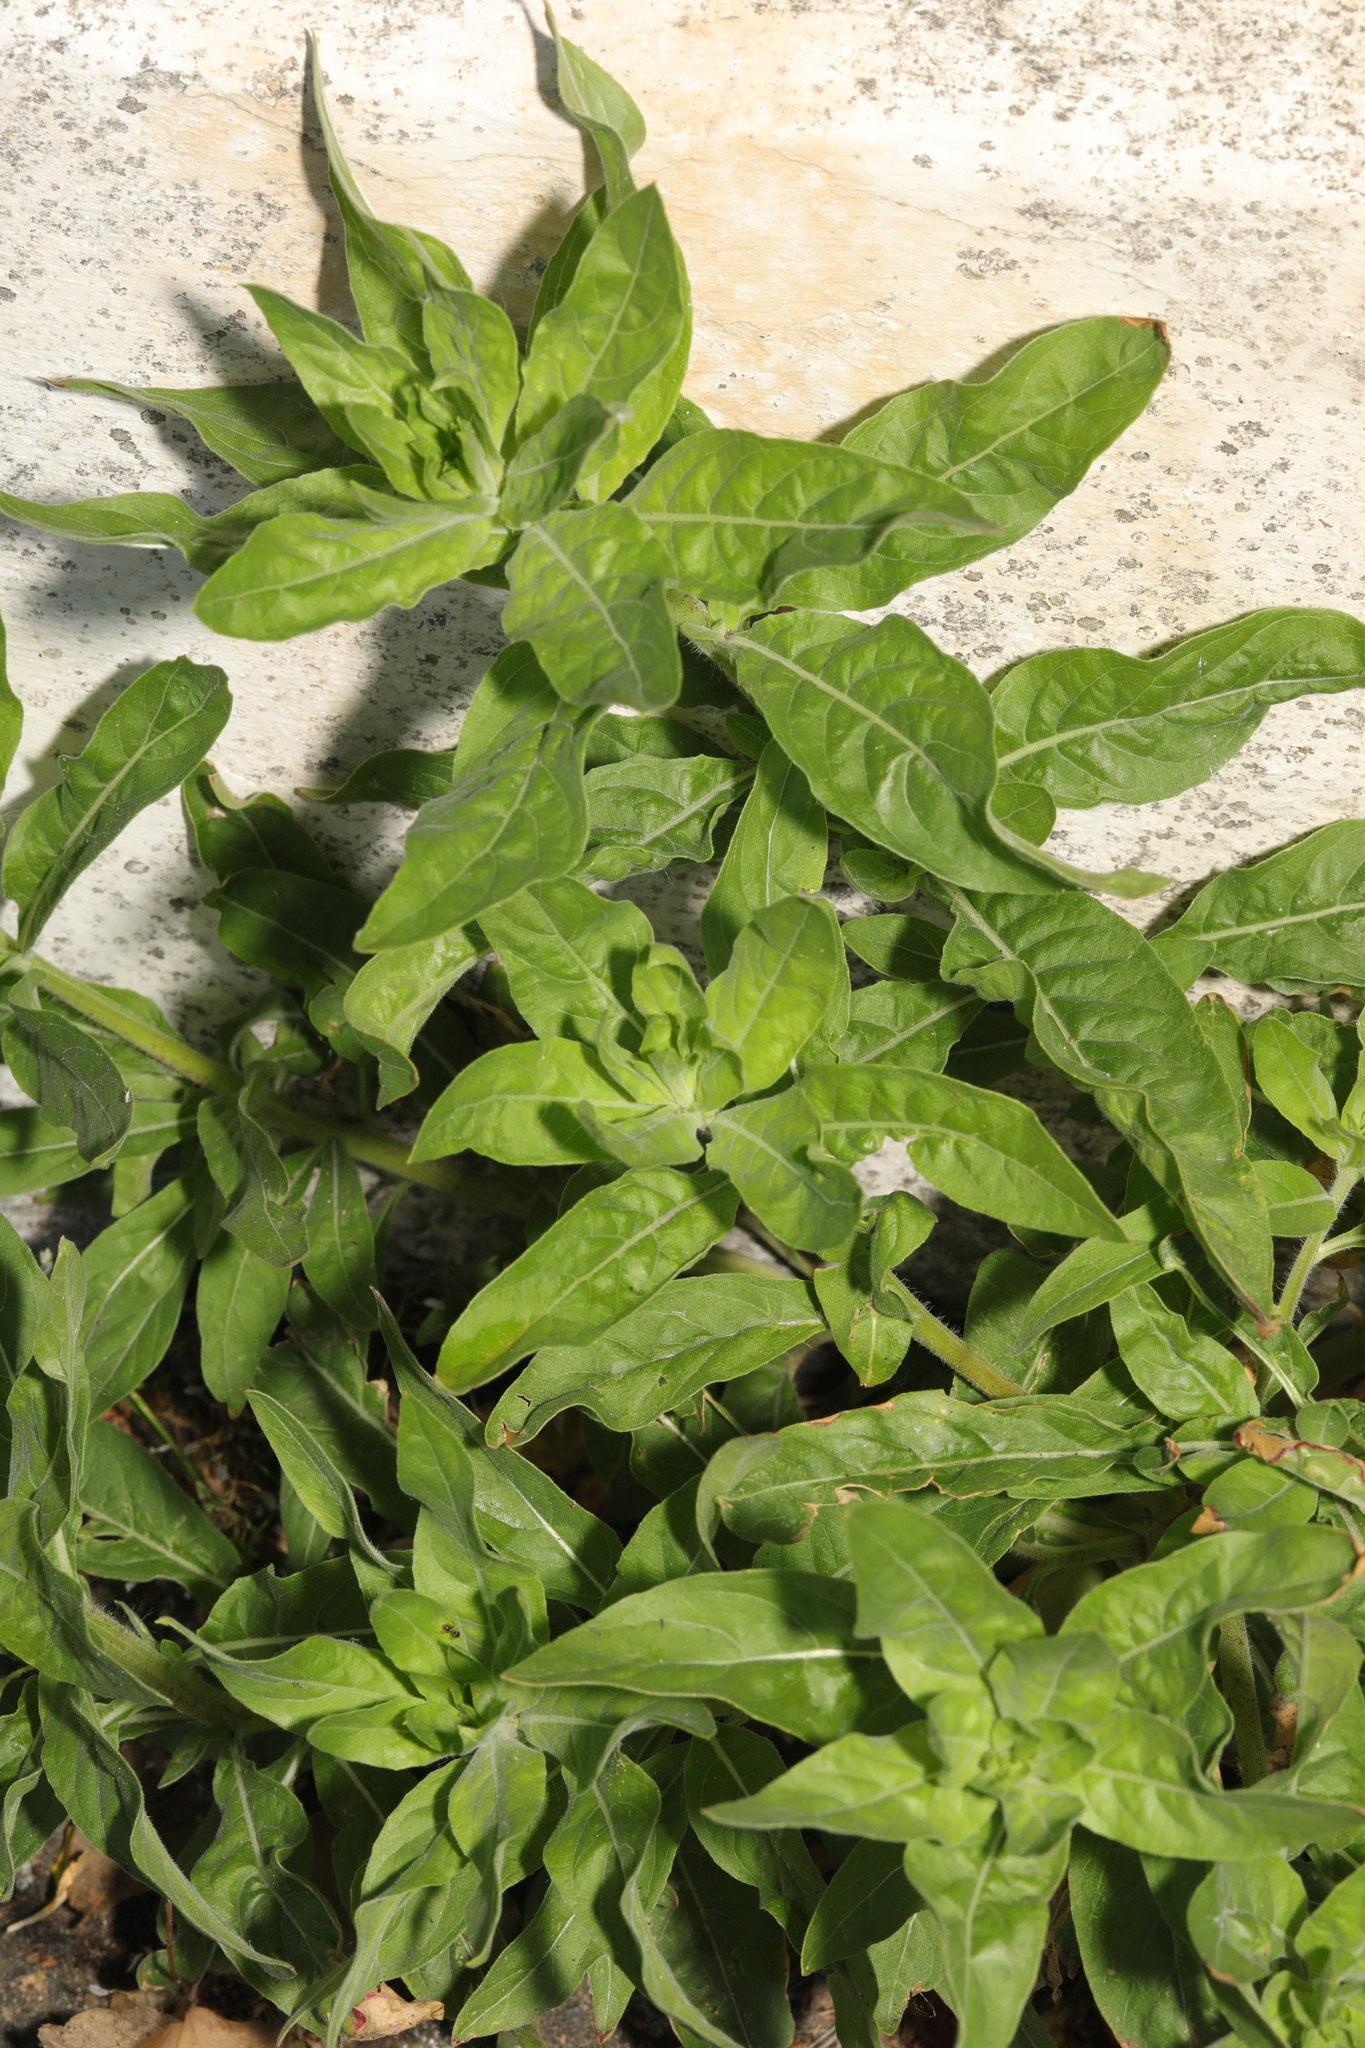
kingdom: Plantae
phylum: Tracheophyta
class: Magnoliopsida
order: Myrtales
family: Onagraceae
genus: Oenothera
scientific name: Oenothera
